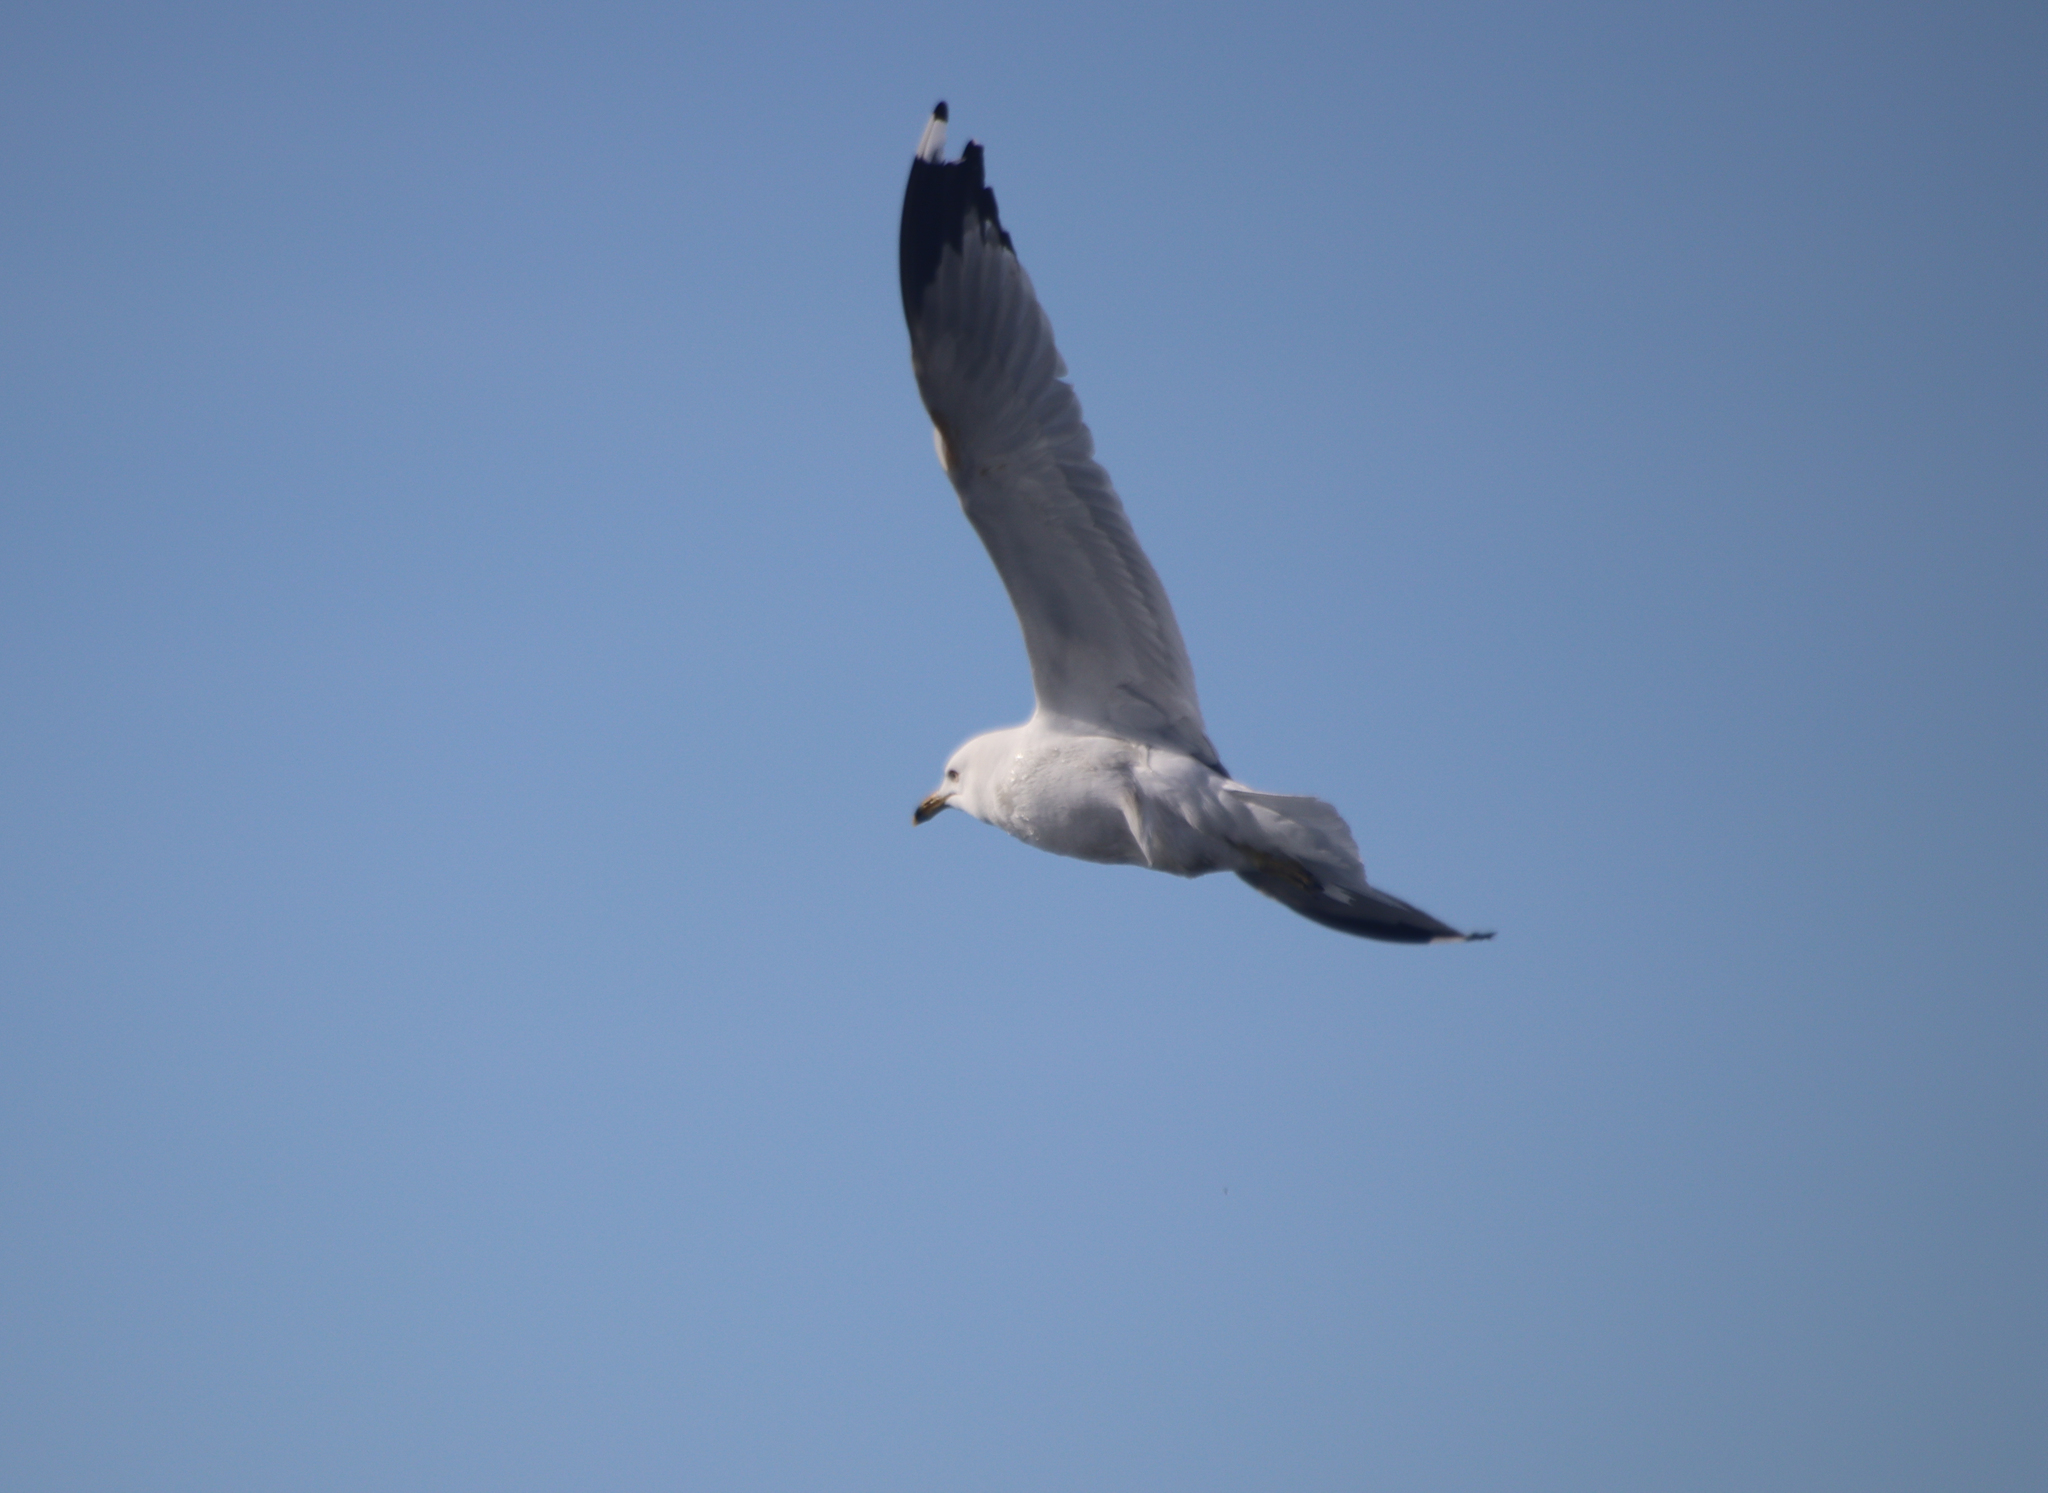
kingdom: Animalia
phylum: Chordata
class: Aves
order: Charadriiformes
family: Laridae
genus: Larus
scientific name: Larus delawarensis
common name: Ring-billed gull
